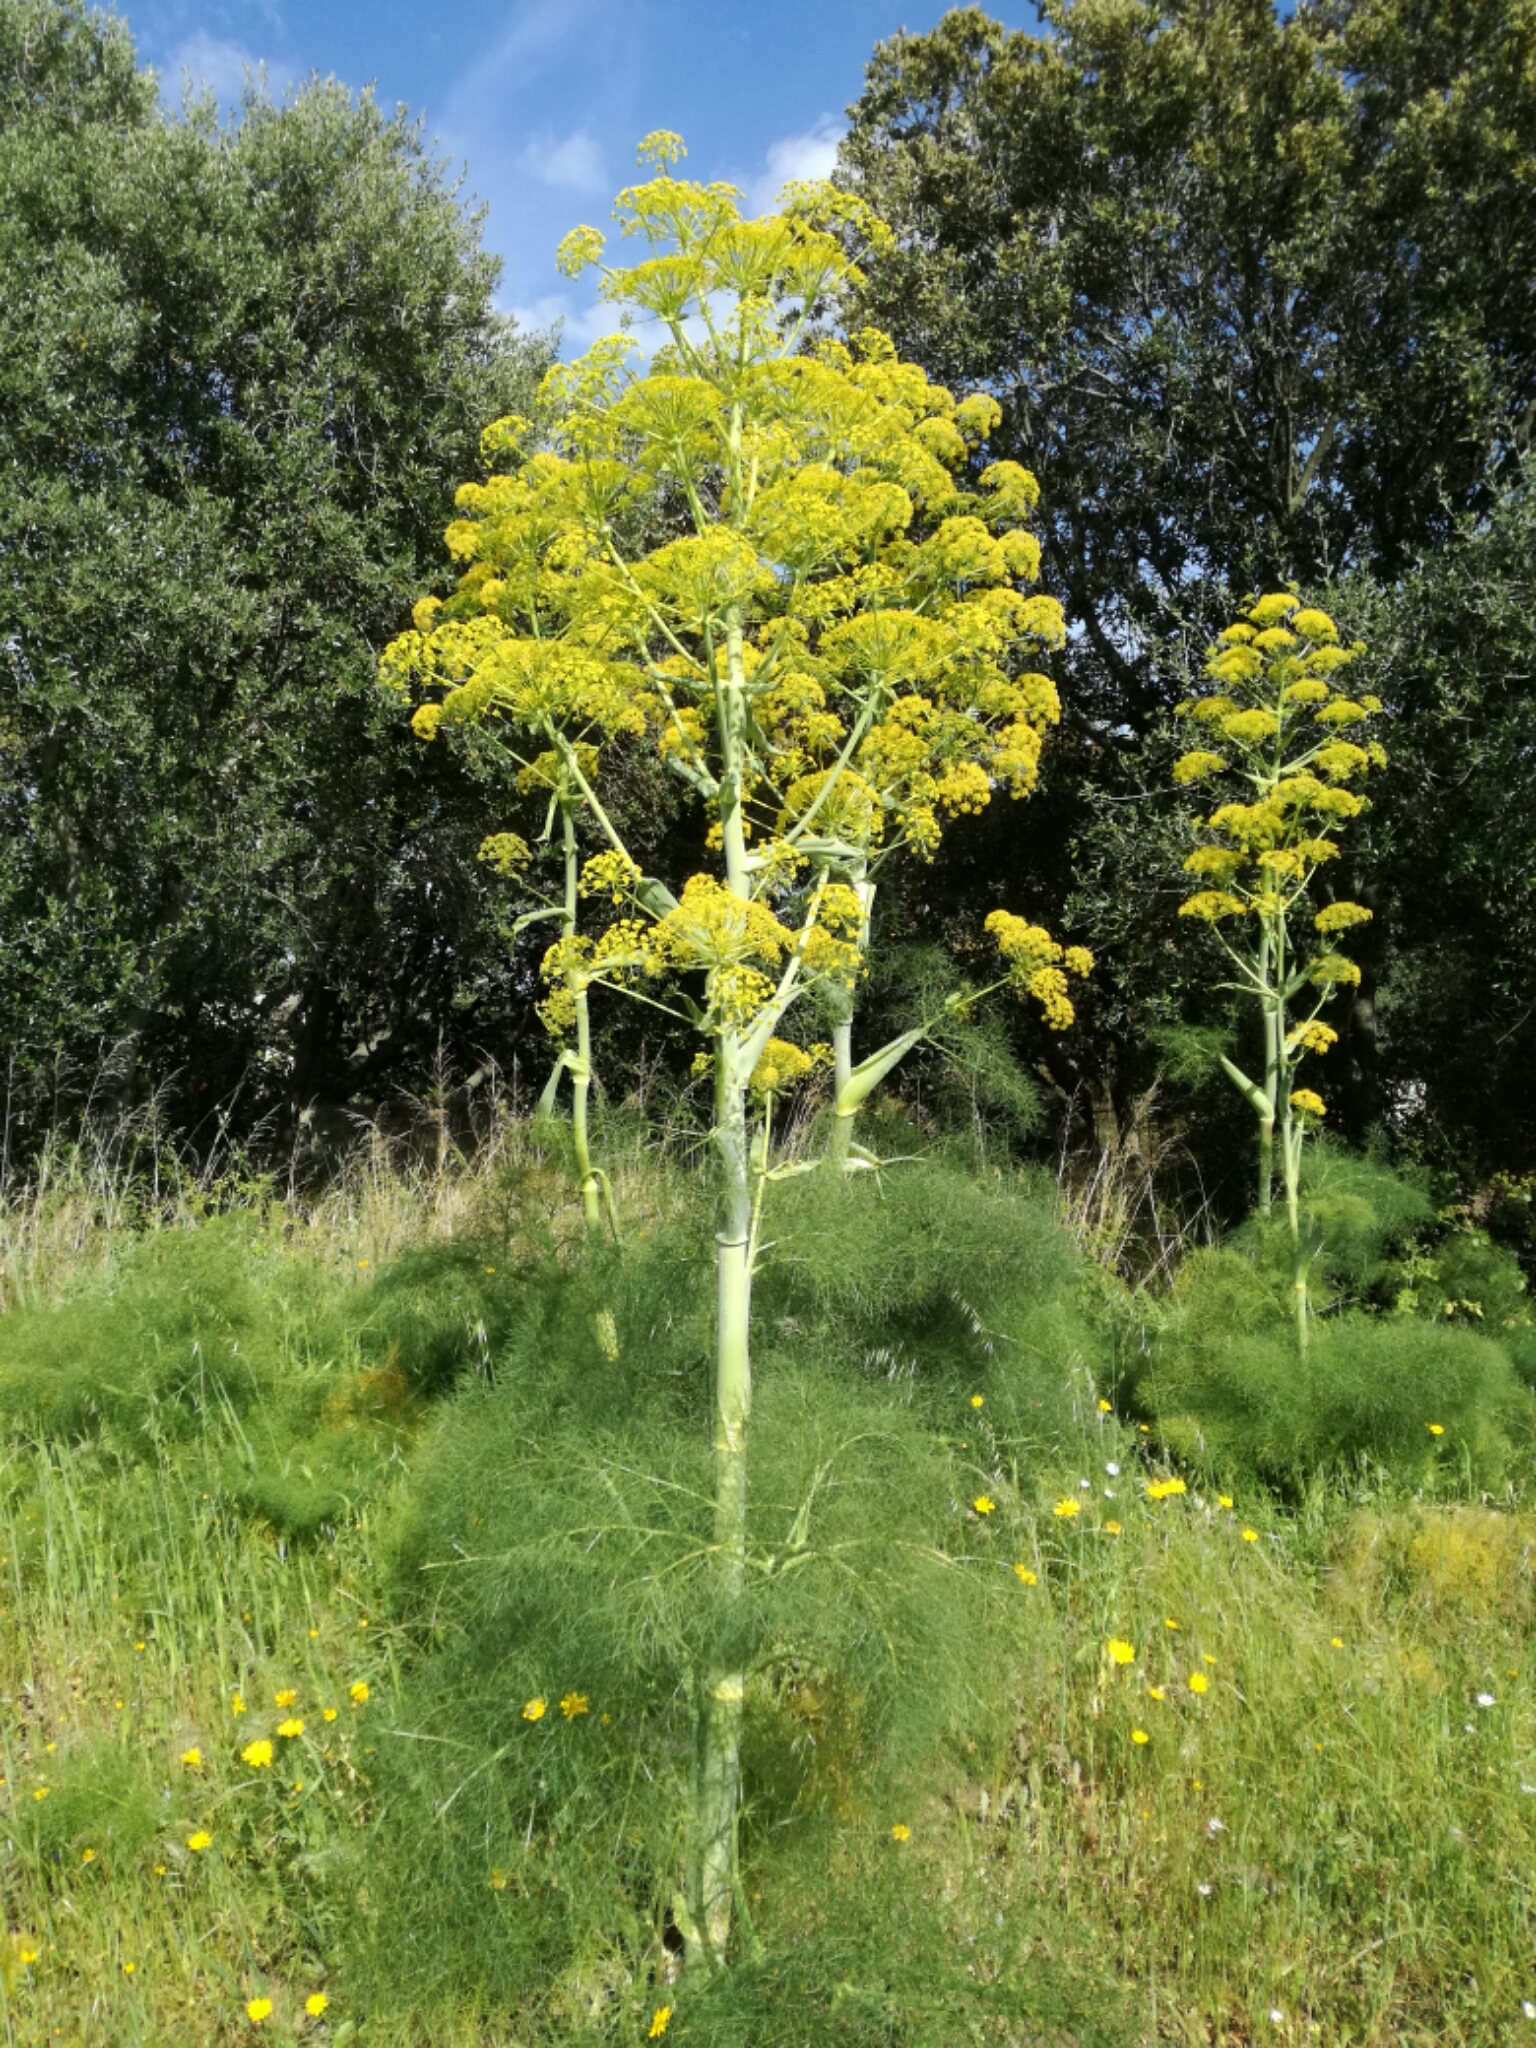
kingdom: Plantae
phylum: Tracheophyta
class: Magnoliopsida
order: Apiales
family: Apiaceae
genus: Ferula
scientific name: Ferula communis
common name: Giant fennel
